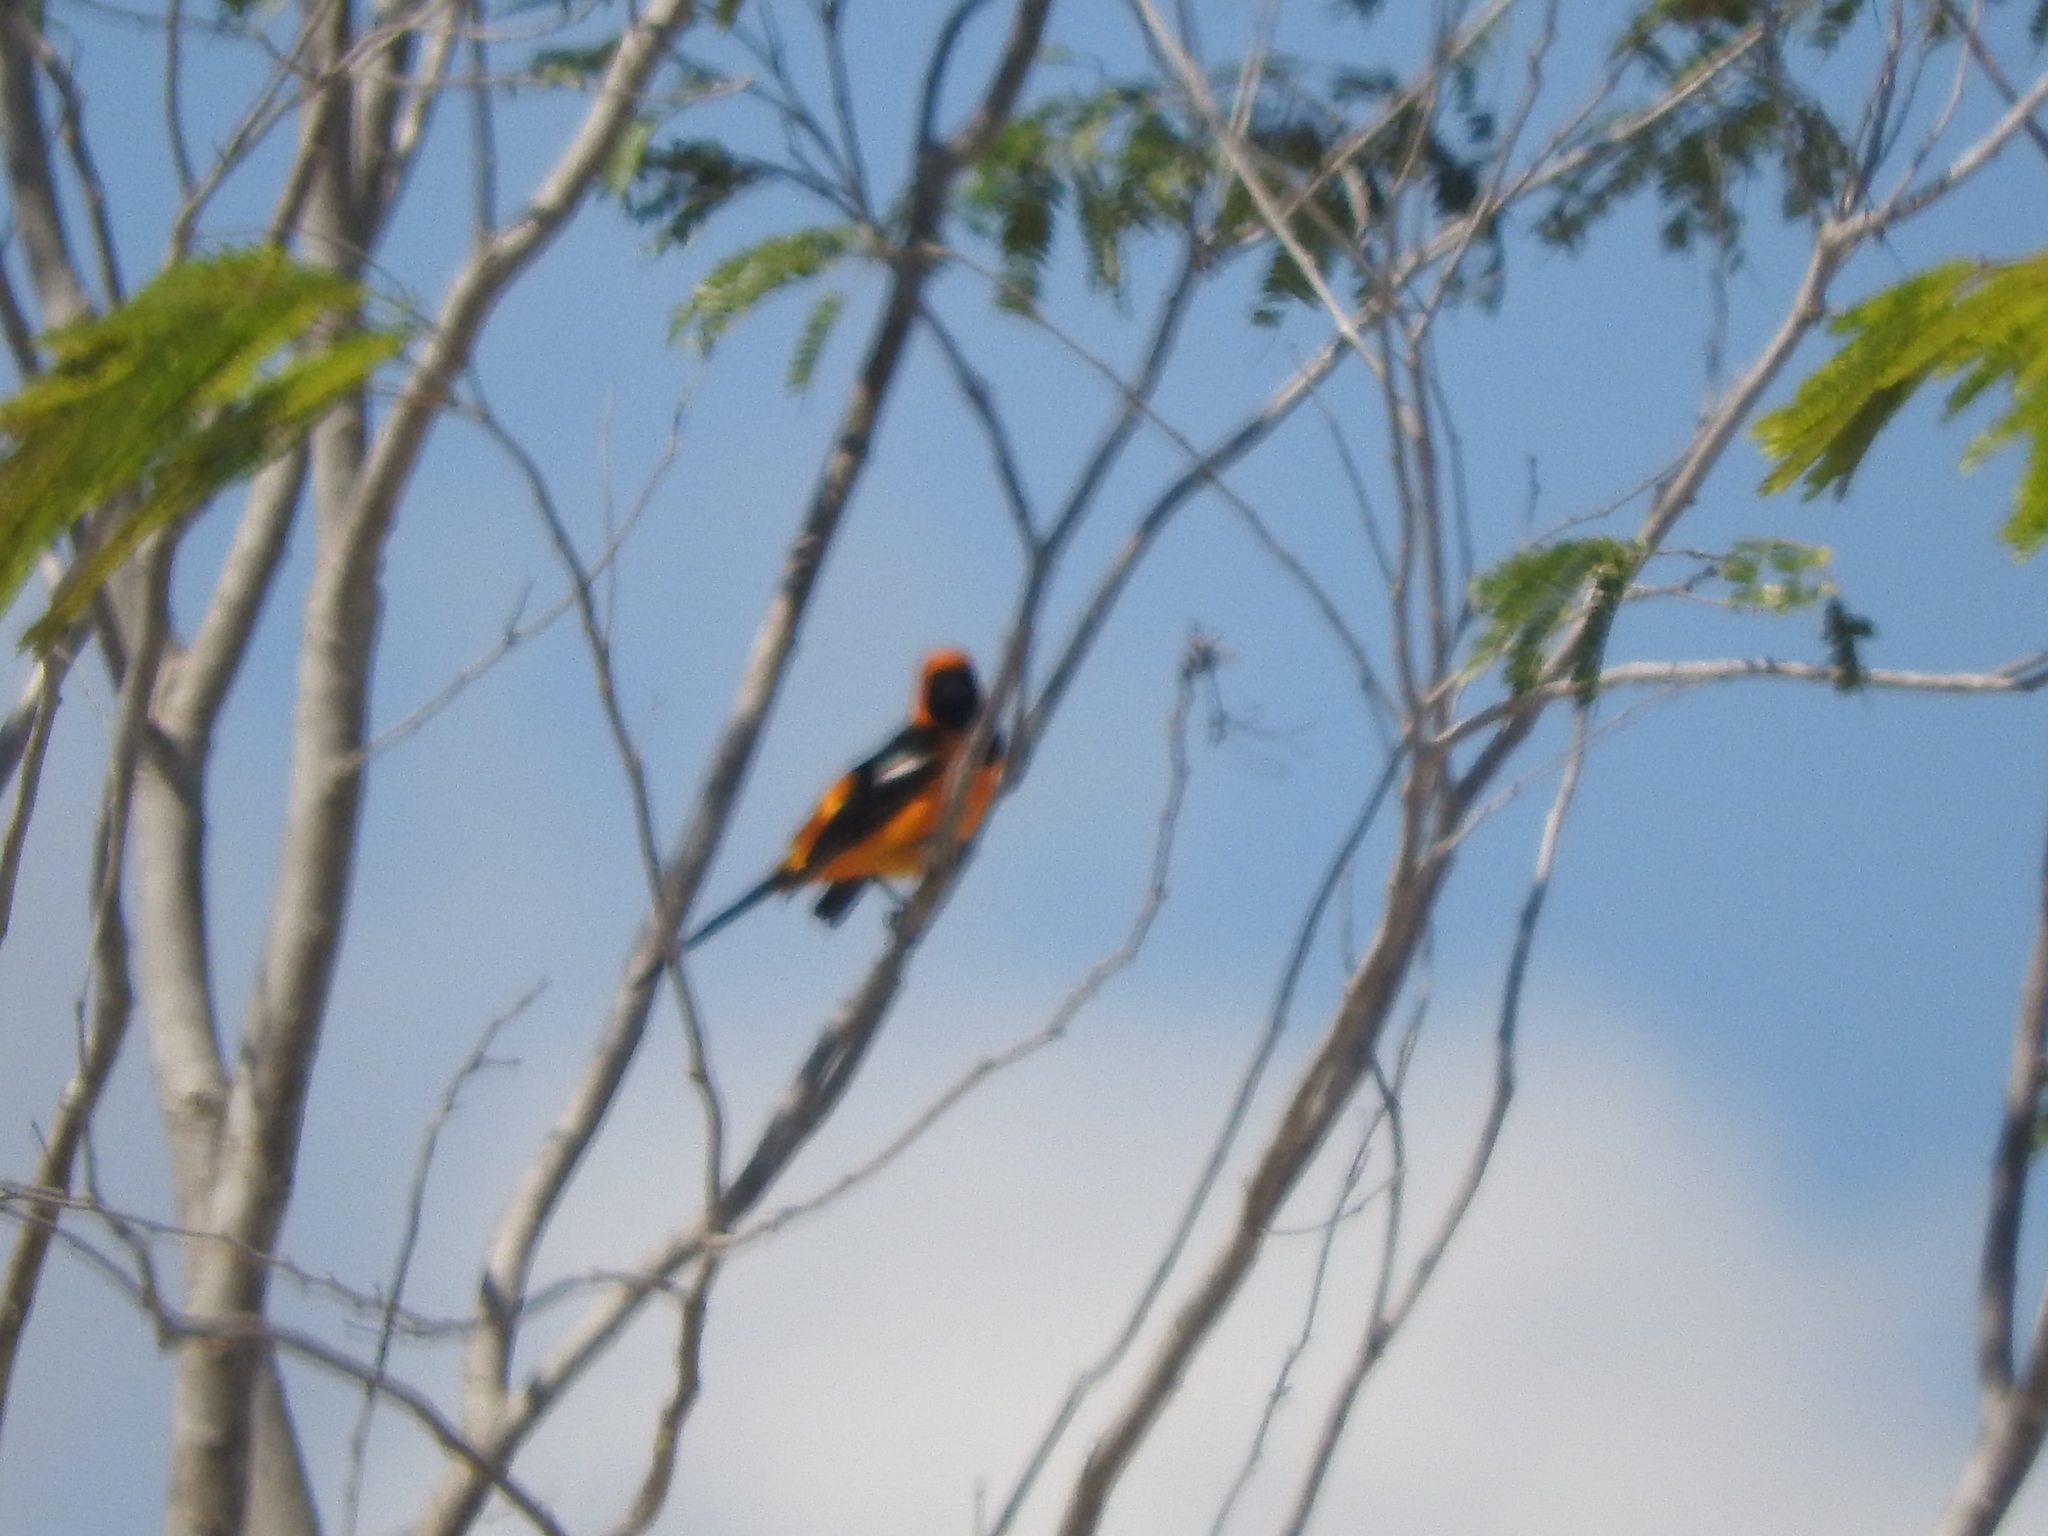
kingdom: Animalia
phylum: Chordata
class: Aves
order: Passeriformes
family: Icteridae
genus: Icterus
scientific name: Icterus cucullatus
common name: Hooded oriole
